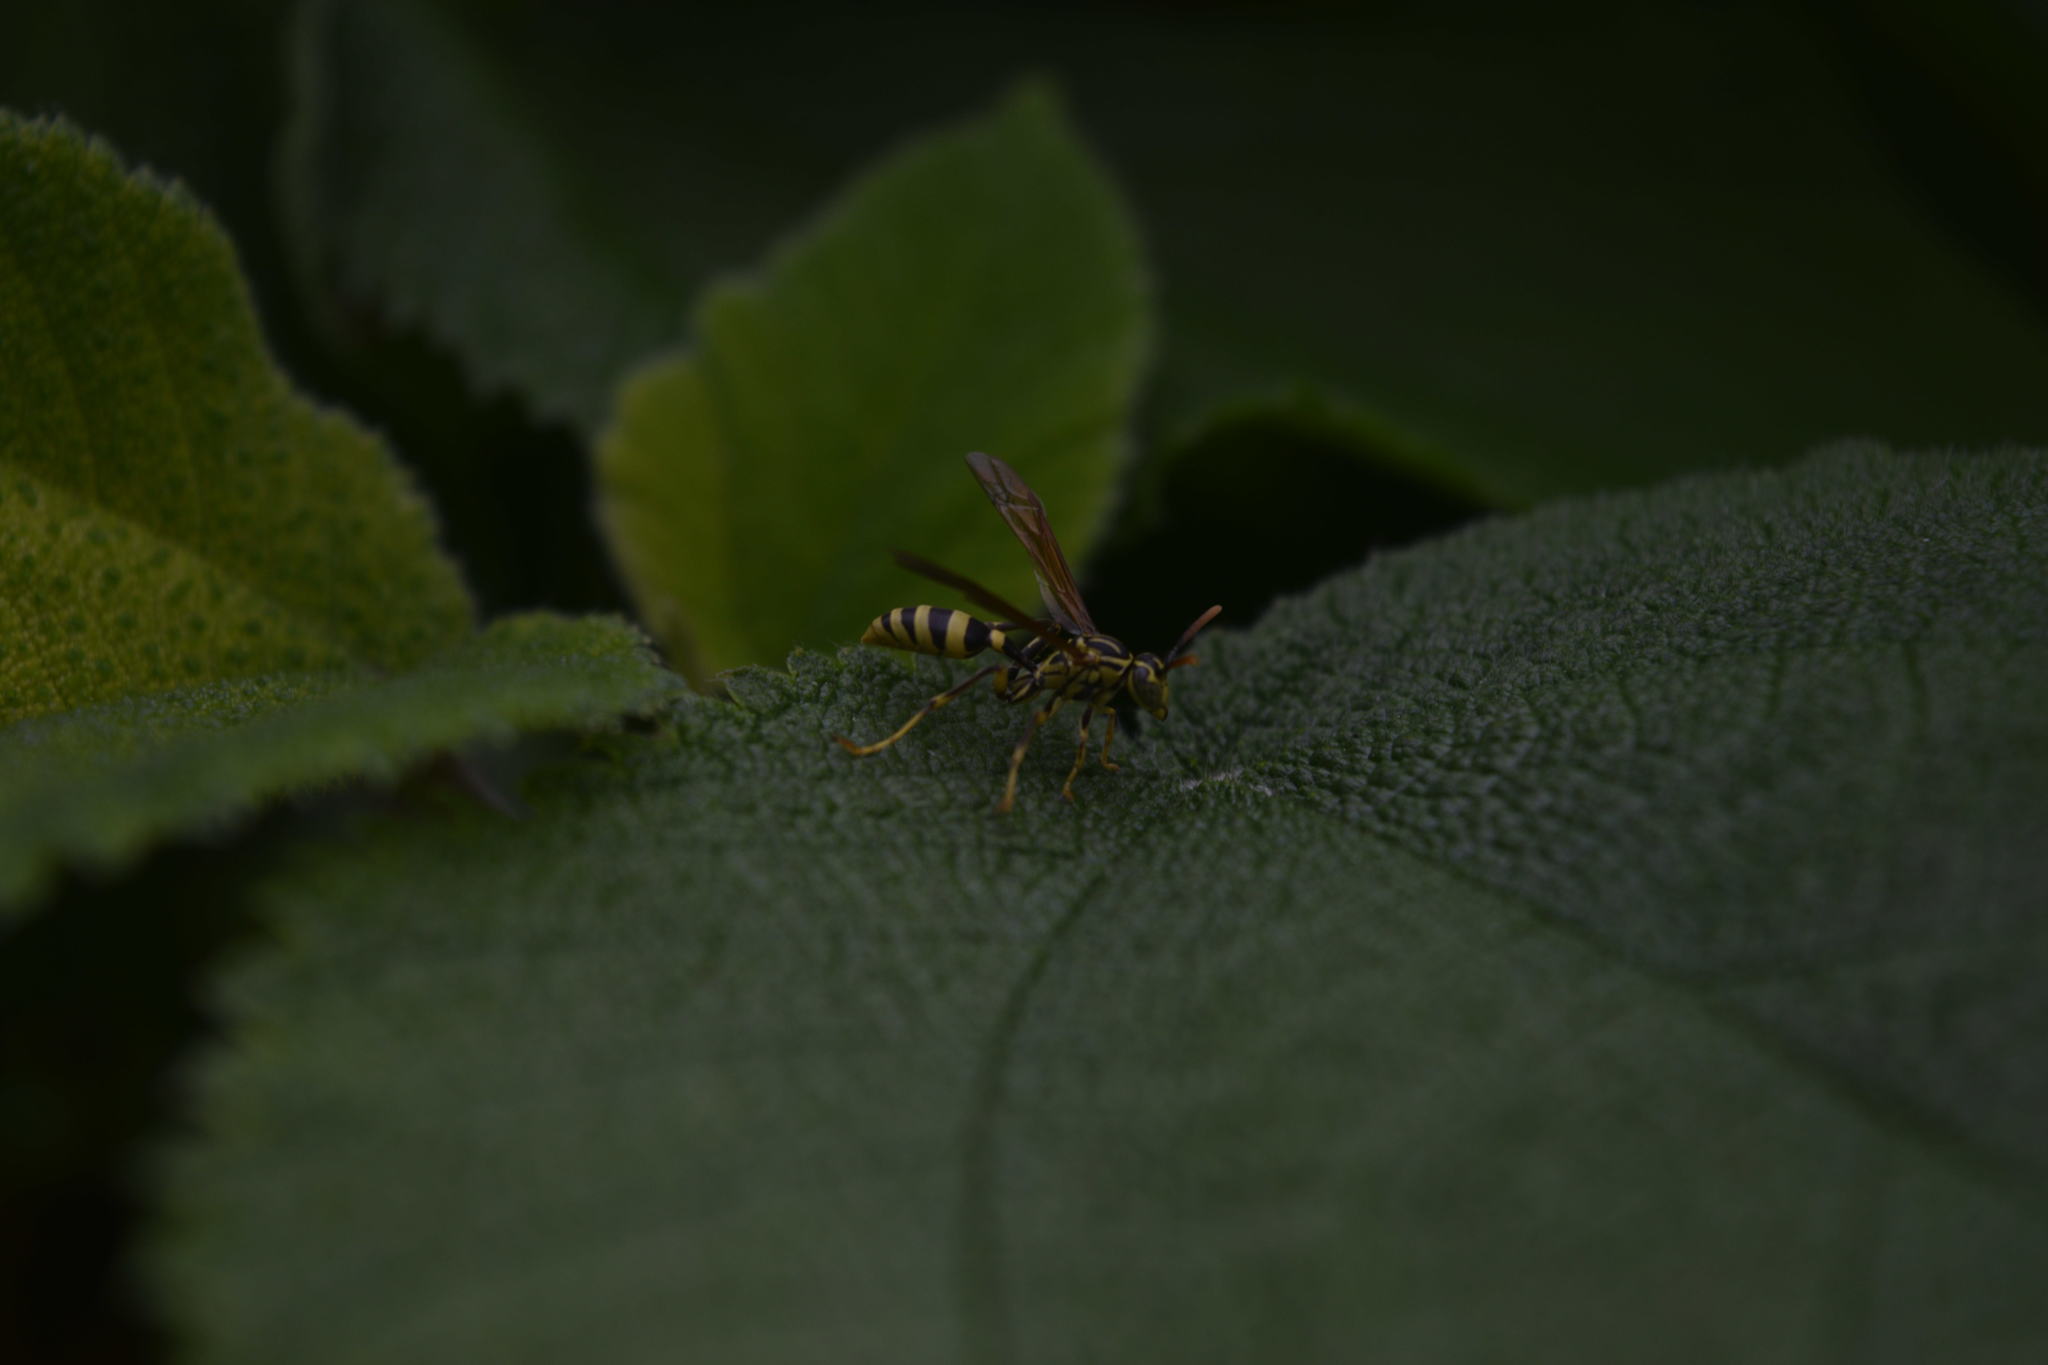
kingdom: Animalia
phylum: Arthropoda
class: Insecta
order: Hymenoptera
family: Vespidae
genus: Mischocyttarus
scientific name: Mischocyttarus basimacula
